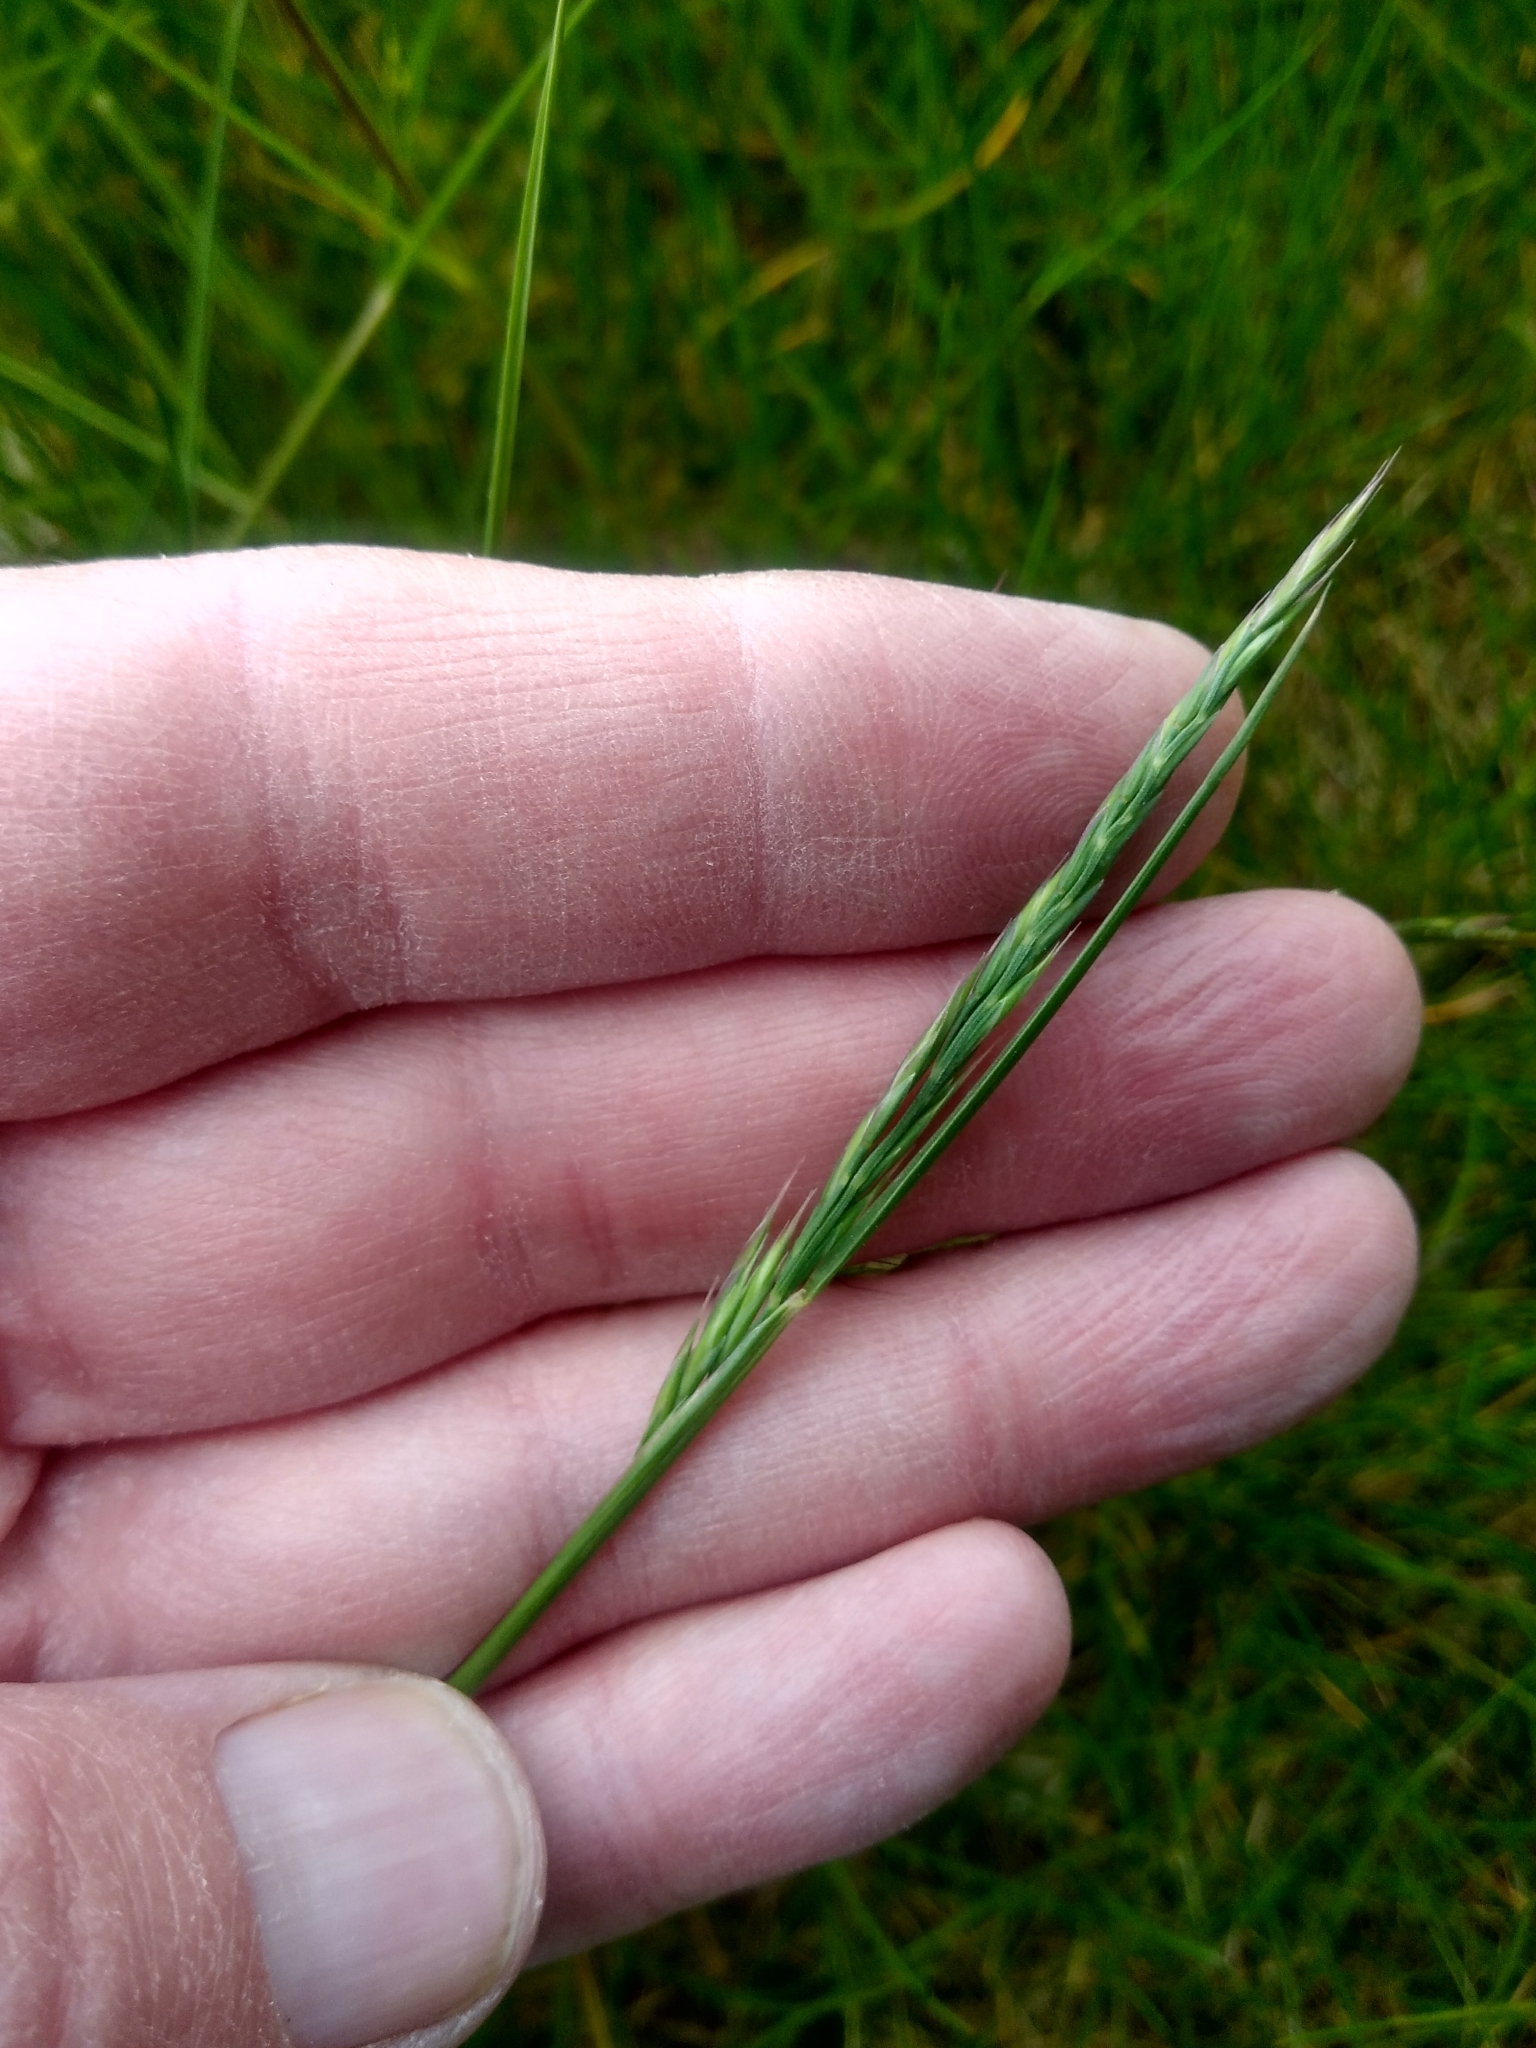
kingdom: Plantae
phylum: Tracheophyta
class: Liliopsida
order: Poales
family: Poaceae
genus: Festuca
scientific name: Festuca rubra
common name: Red fescue
